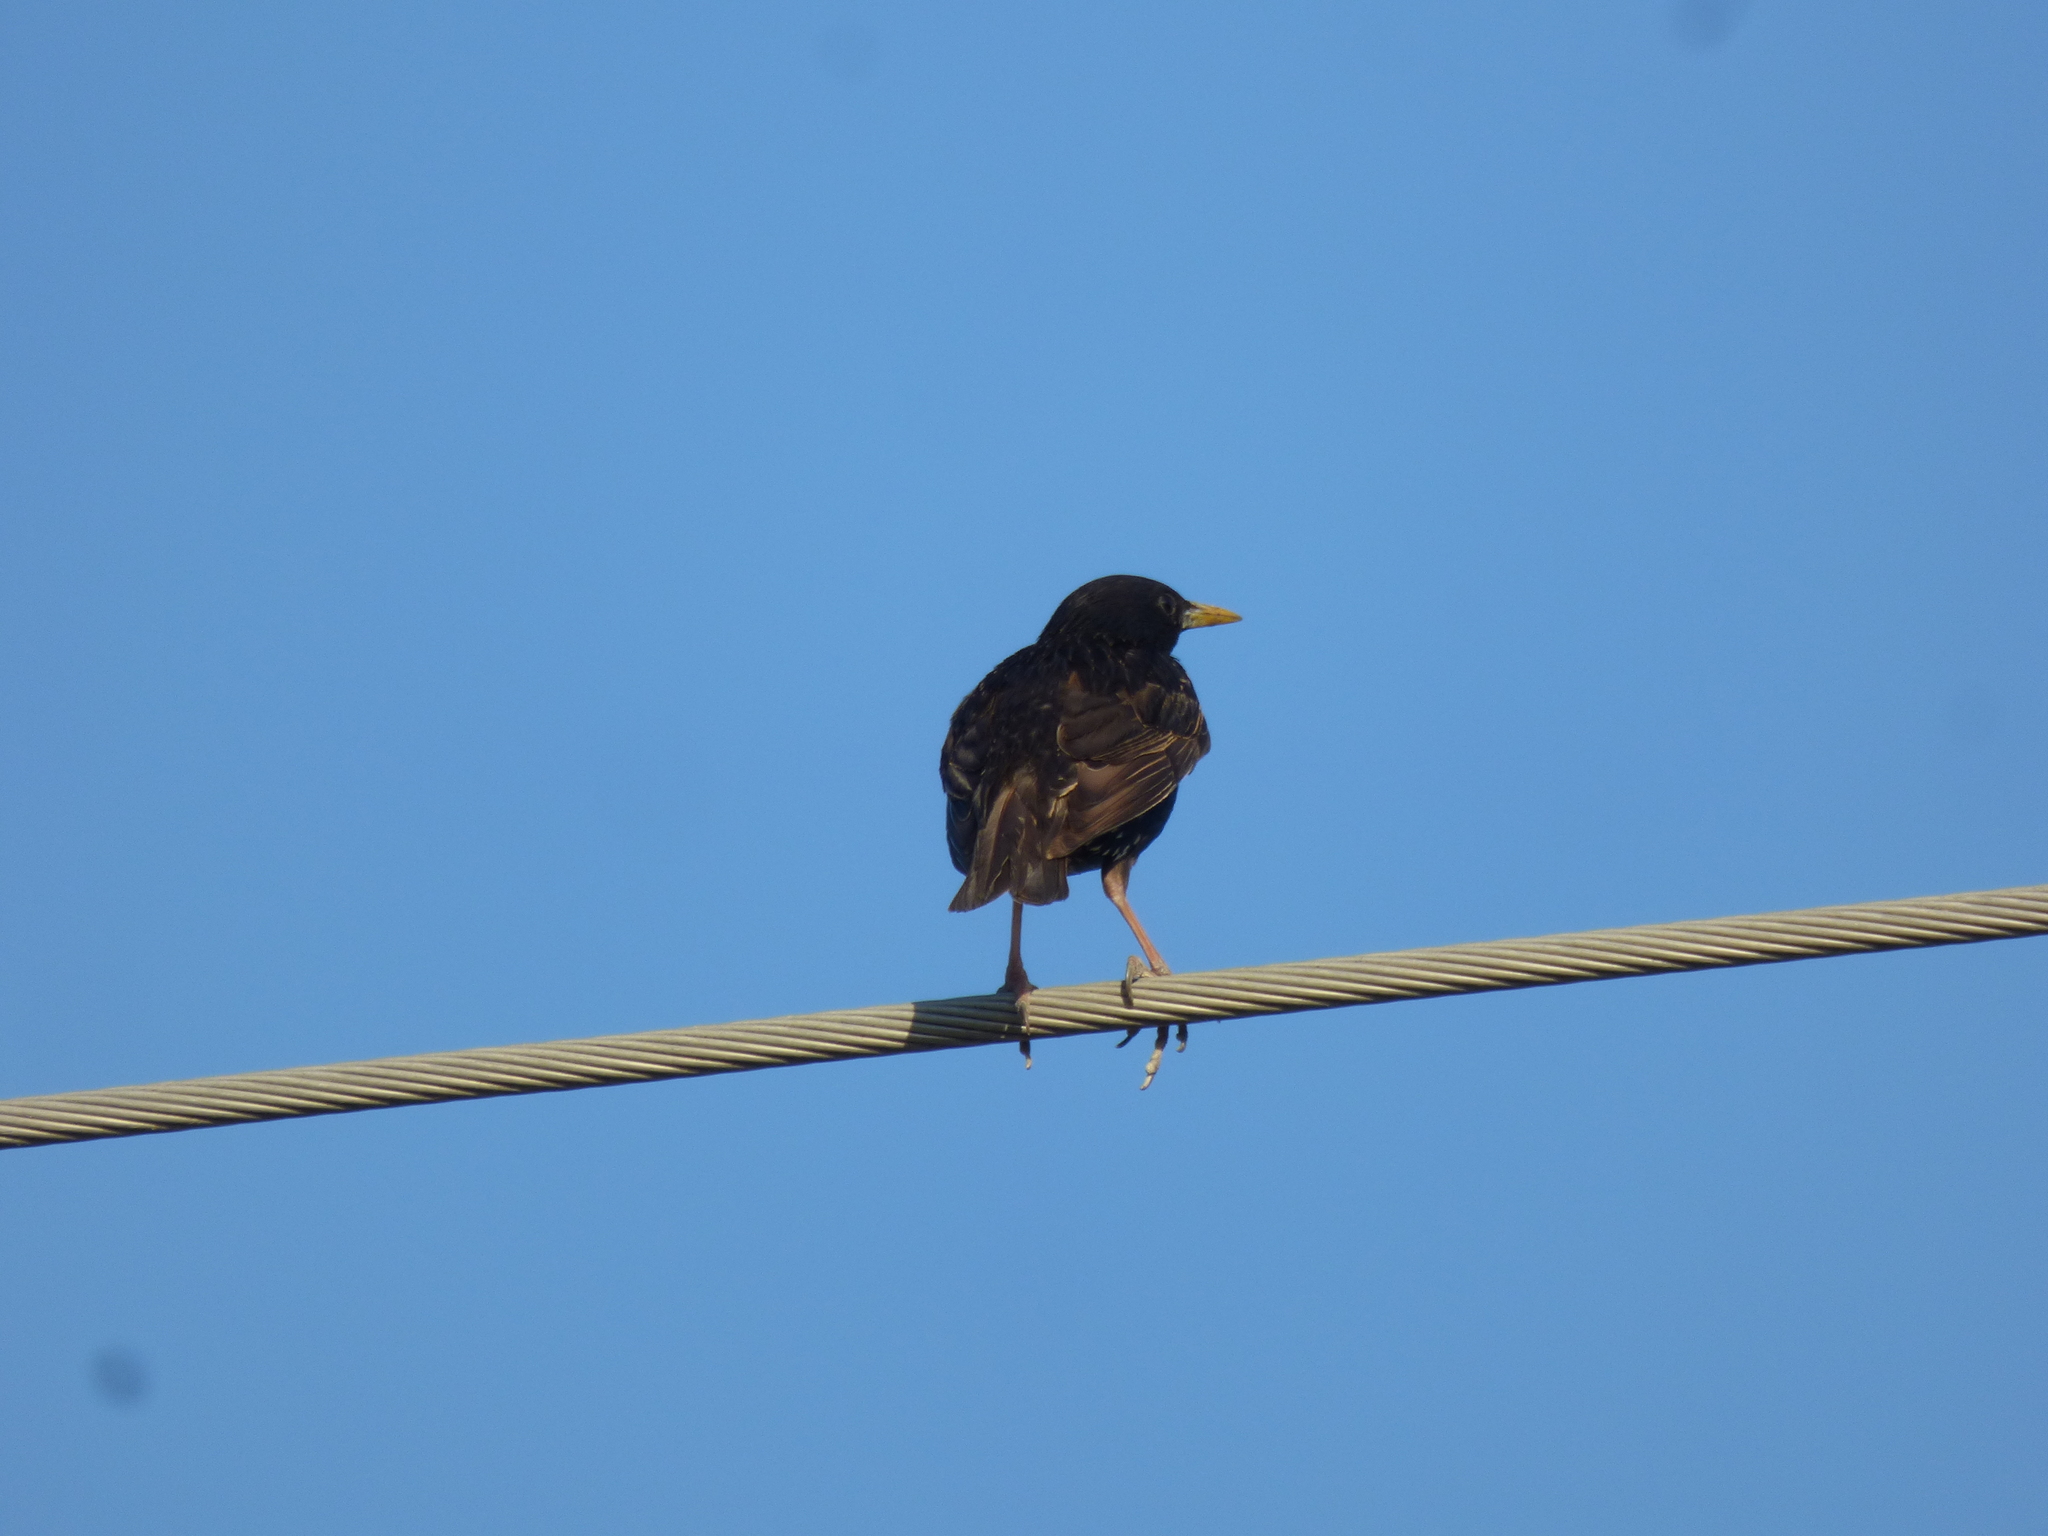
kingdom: Animalia
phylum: Chordata
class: Aves
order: Passeriformes
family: Sturnidae
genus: Sturnus
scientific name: Sturnus vulgaris
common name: Common starling
